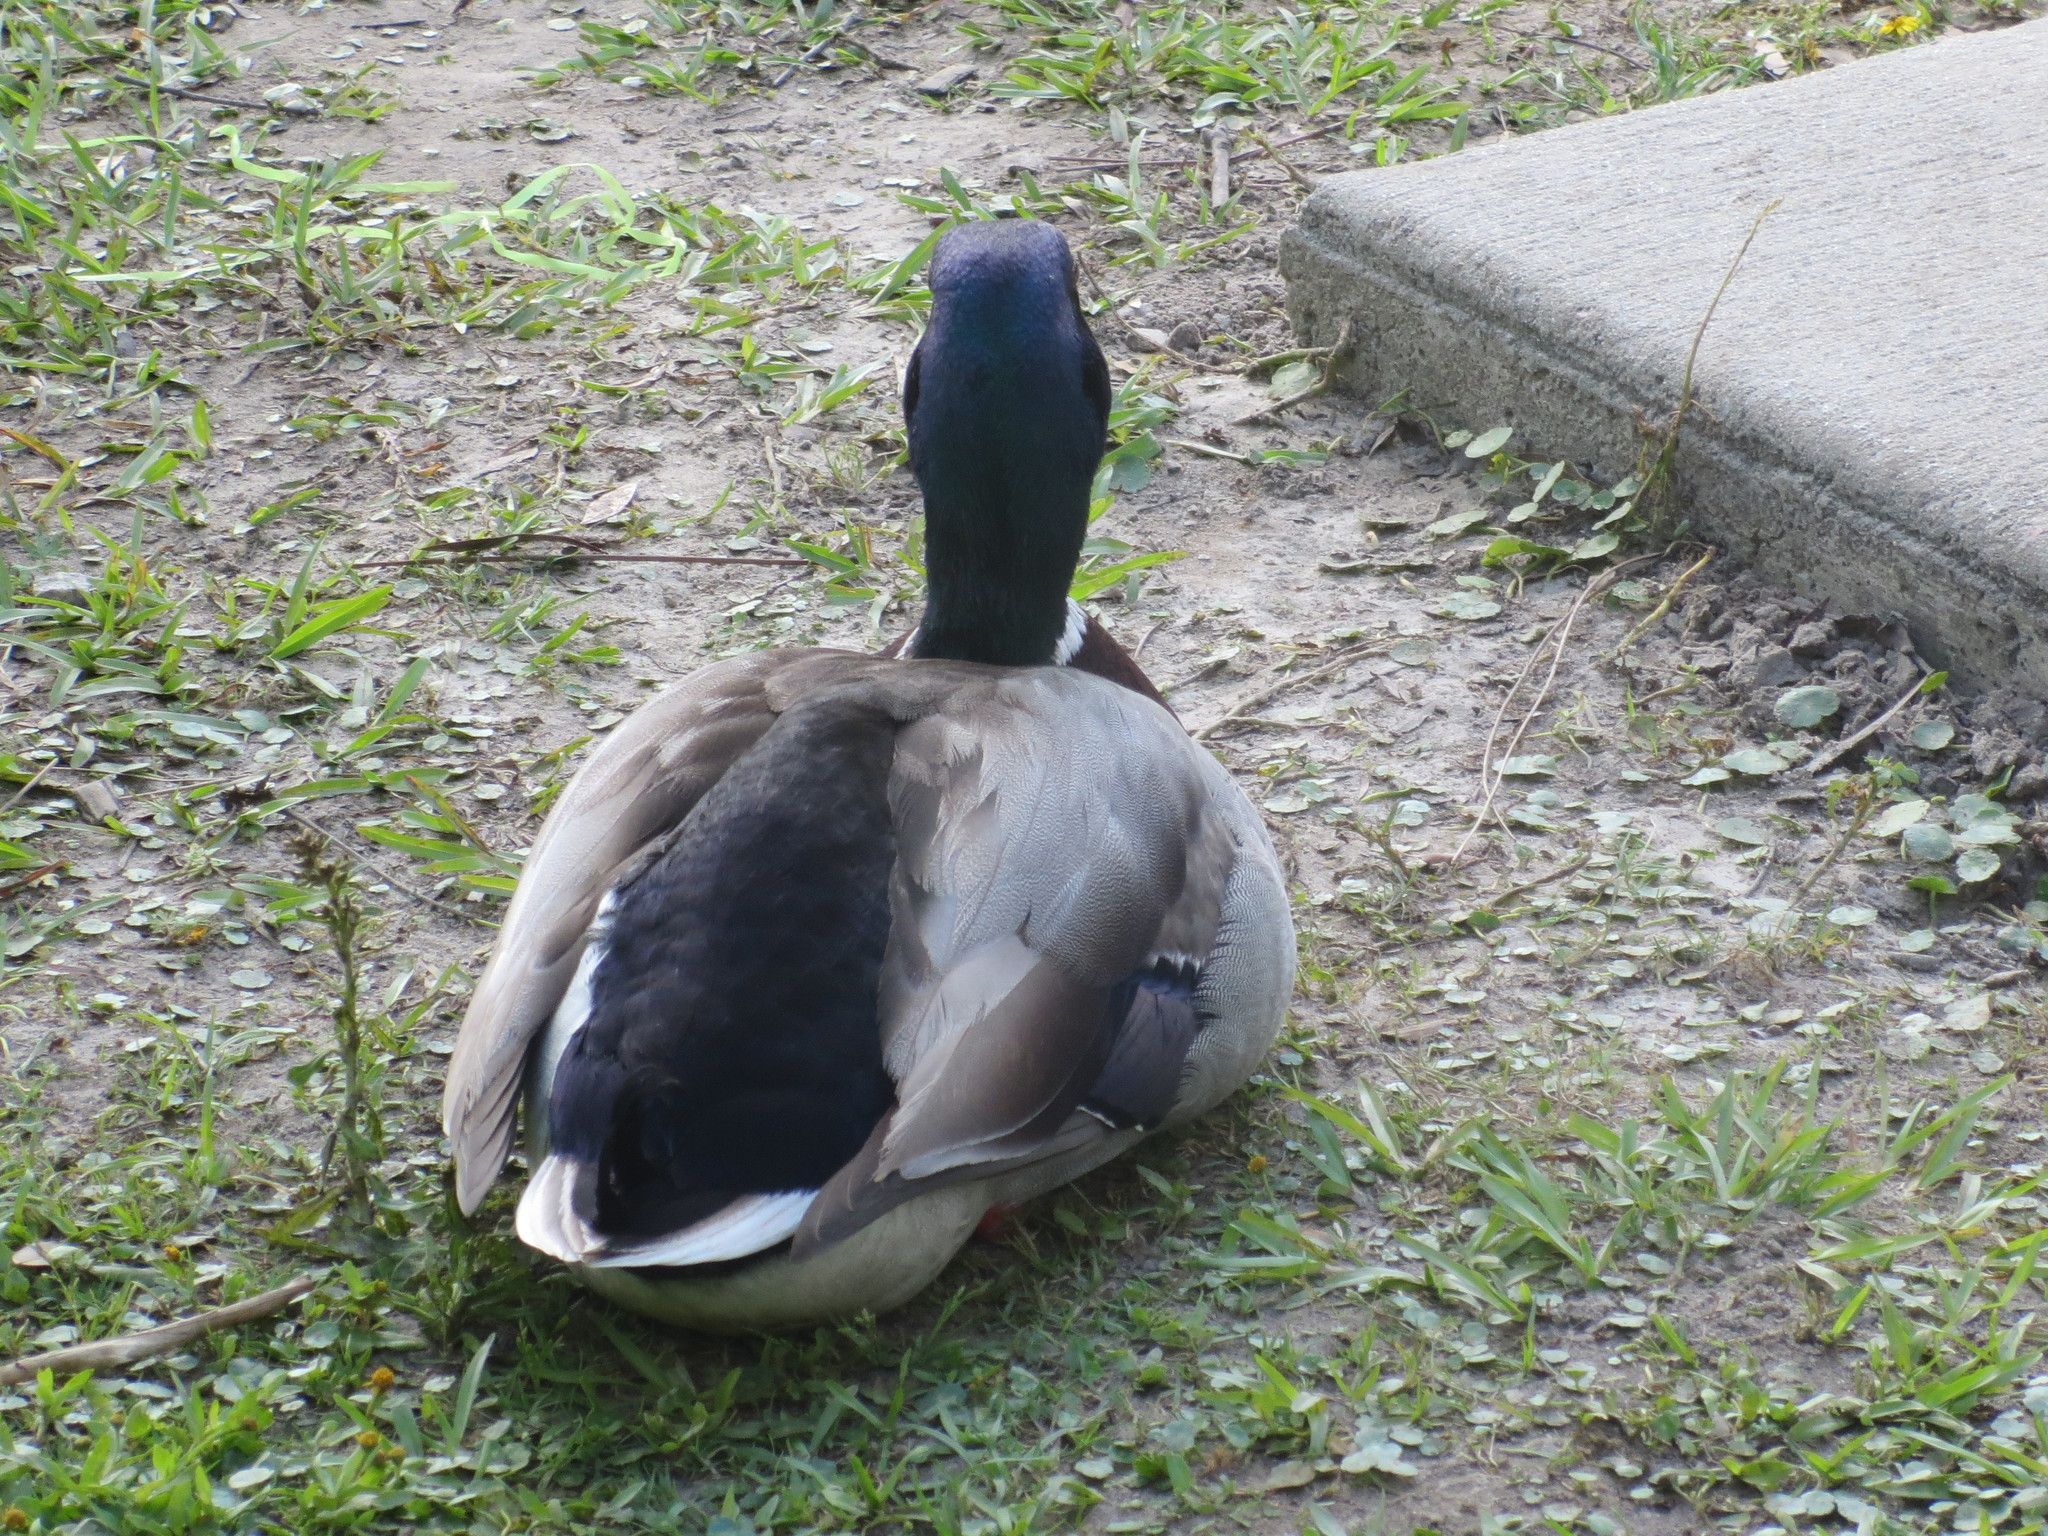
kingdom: Animalia
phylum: Chordata
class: Aves
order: Anseriformes
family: Anatidae
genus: Anas
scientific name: Anas platyrhynchos
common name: Mallard
